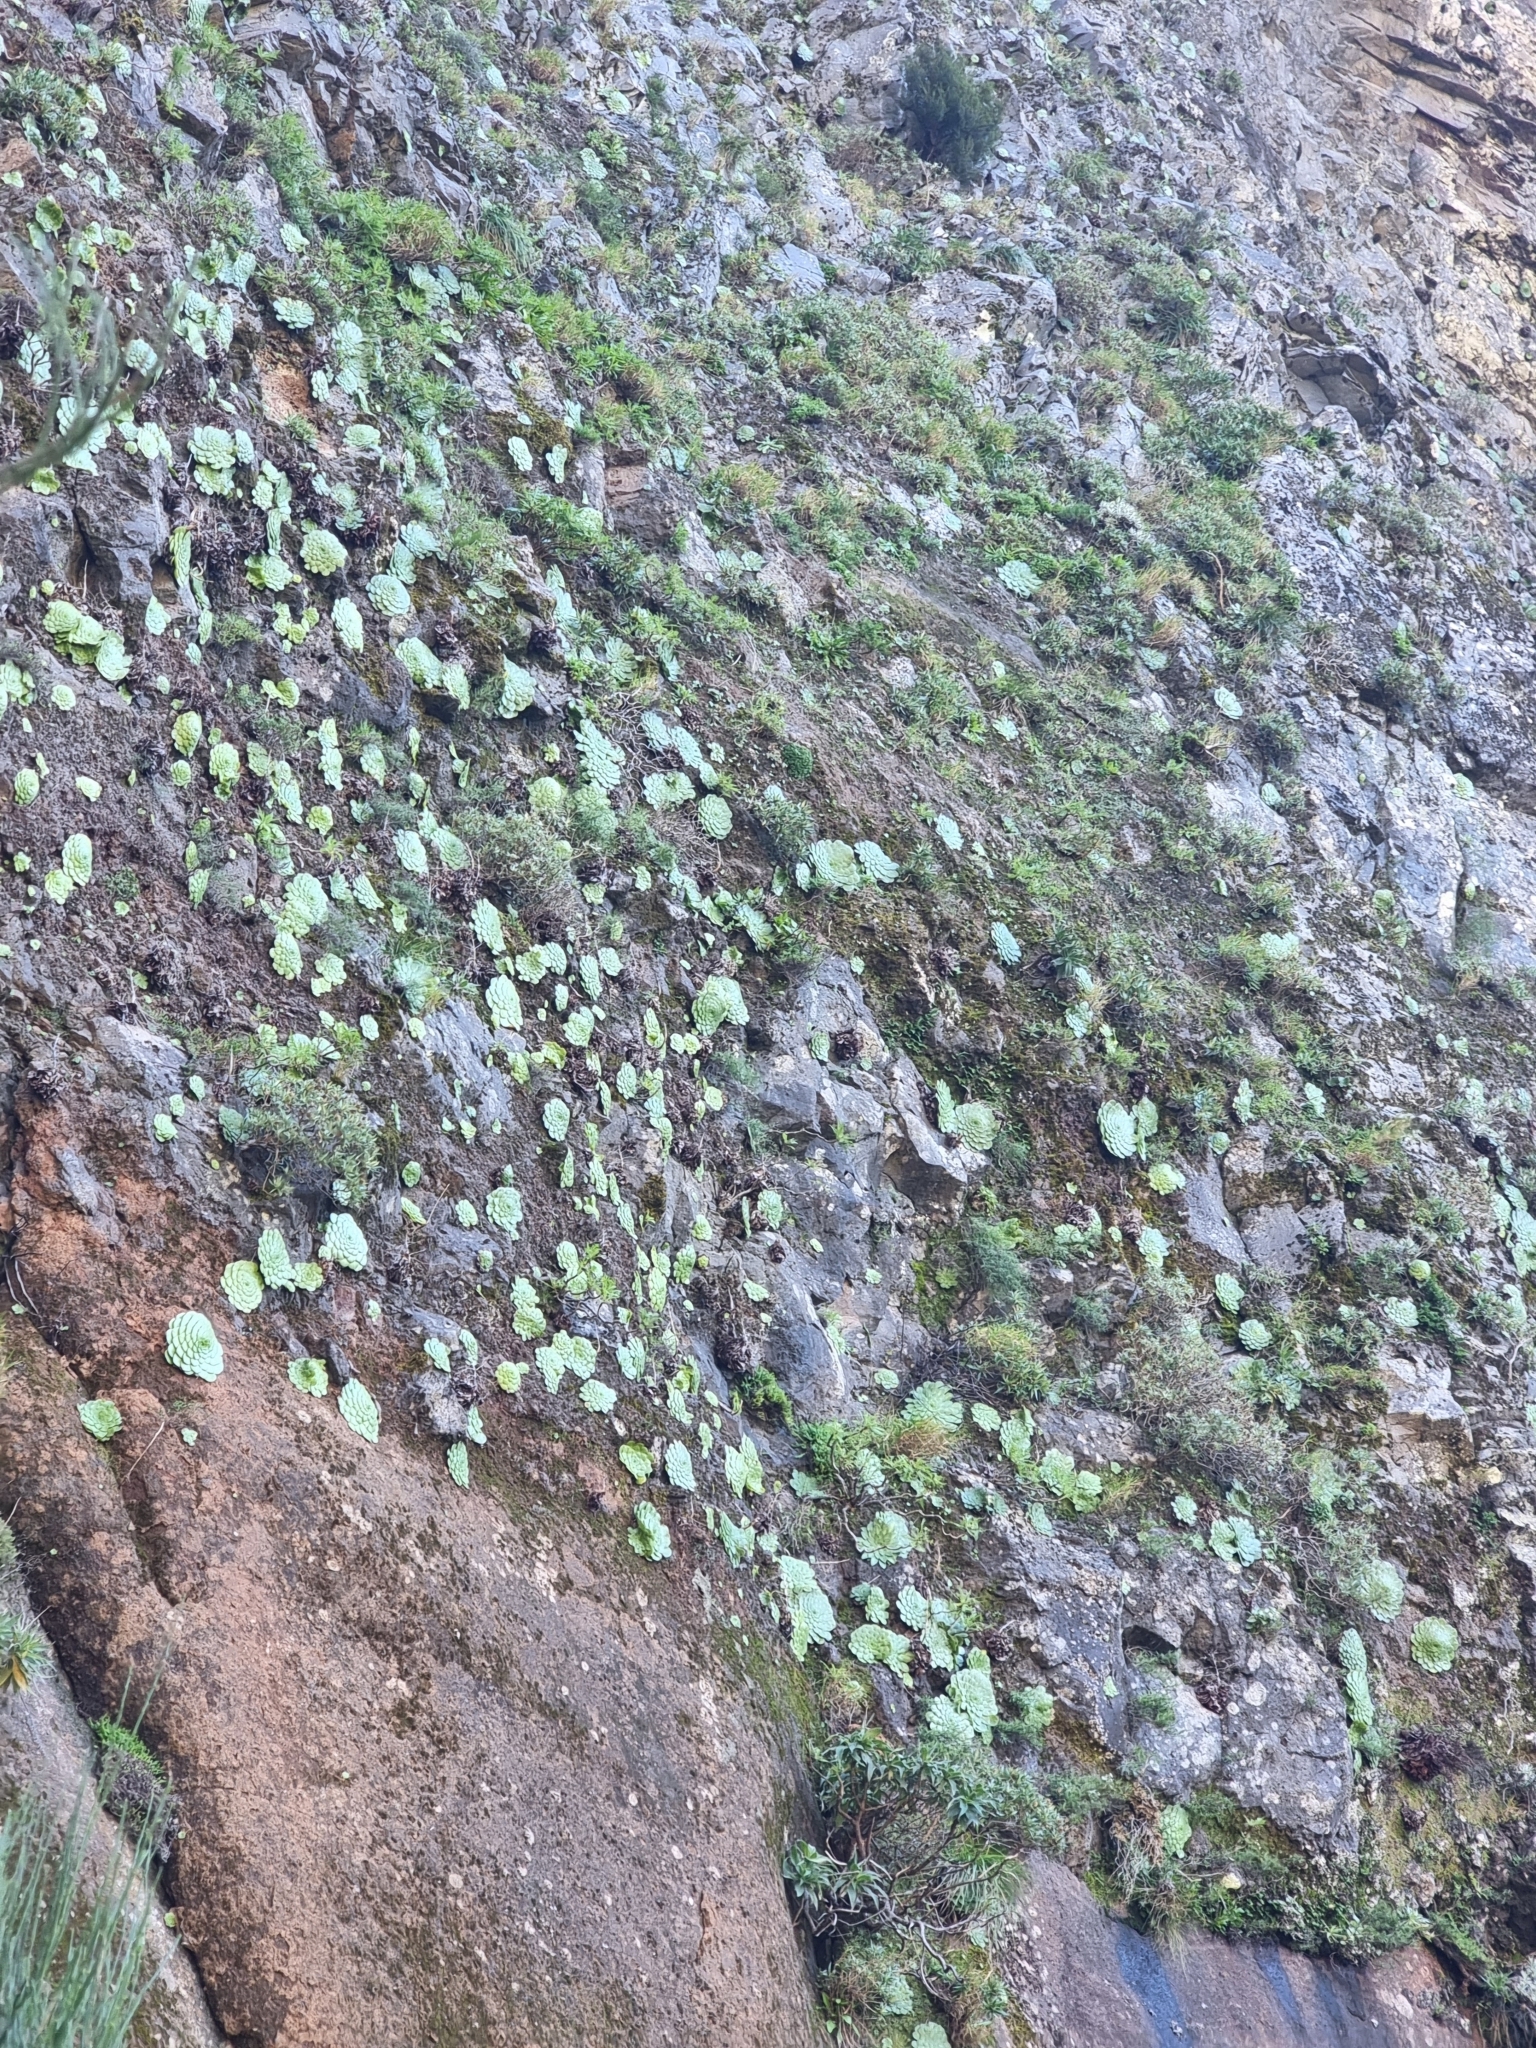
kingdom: Plantae
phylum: Tracheophyta
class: Magnoliopsida
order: Saxifragales
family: Crassulaceae
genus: Aeonium
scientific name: Aeonium glandulosum
